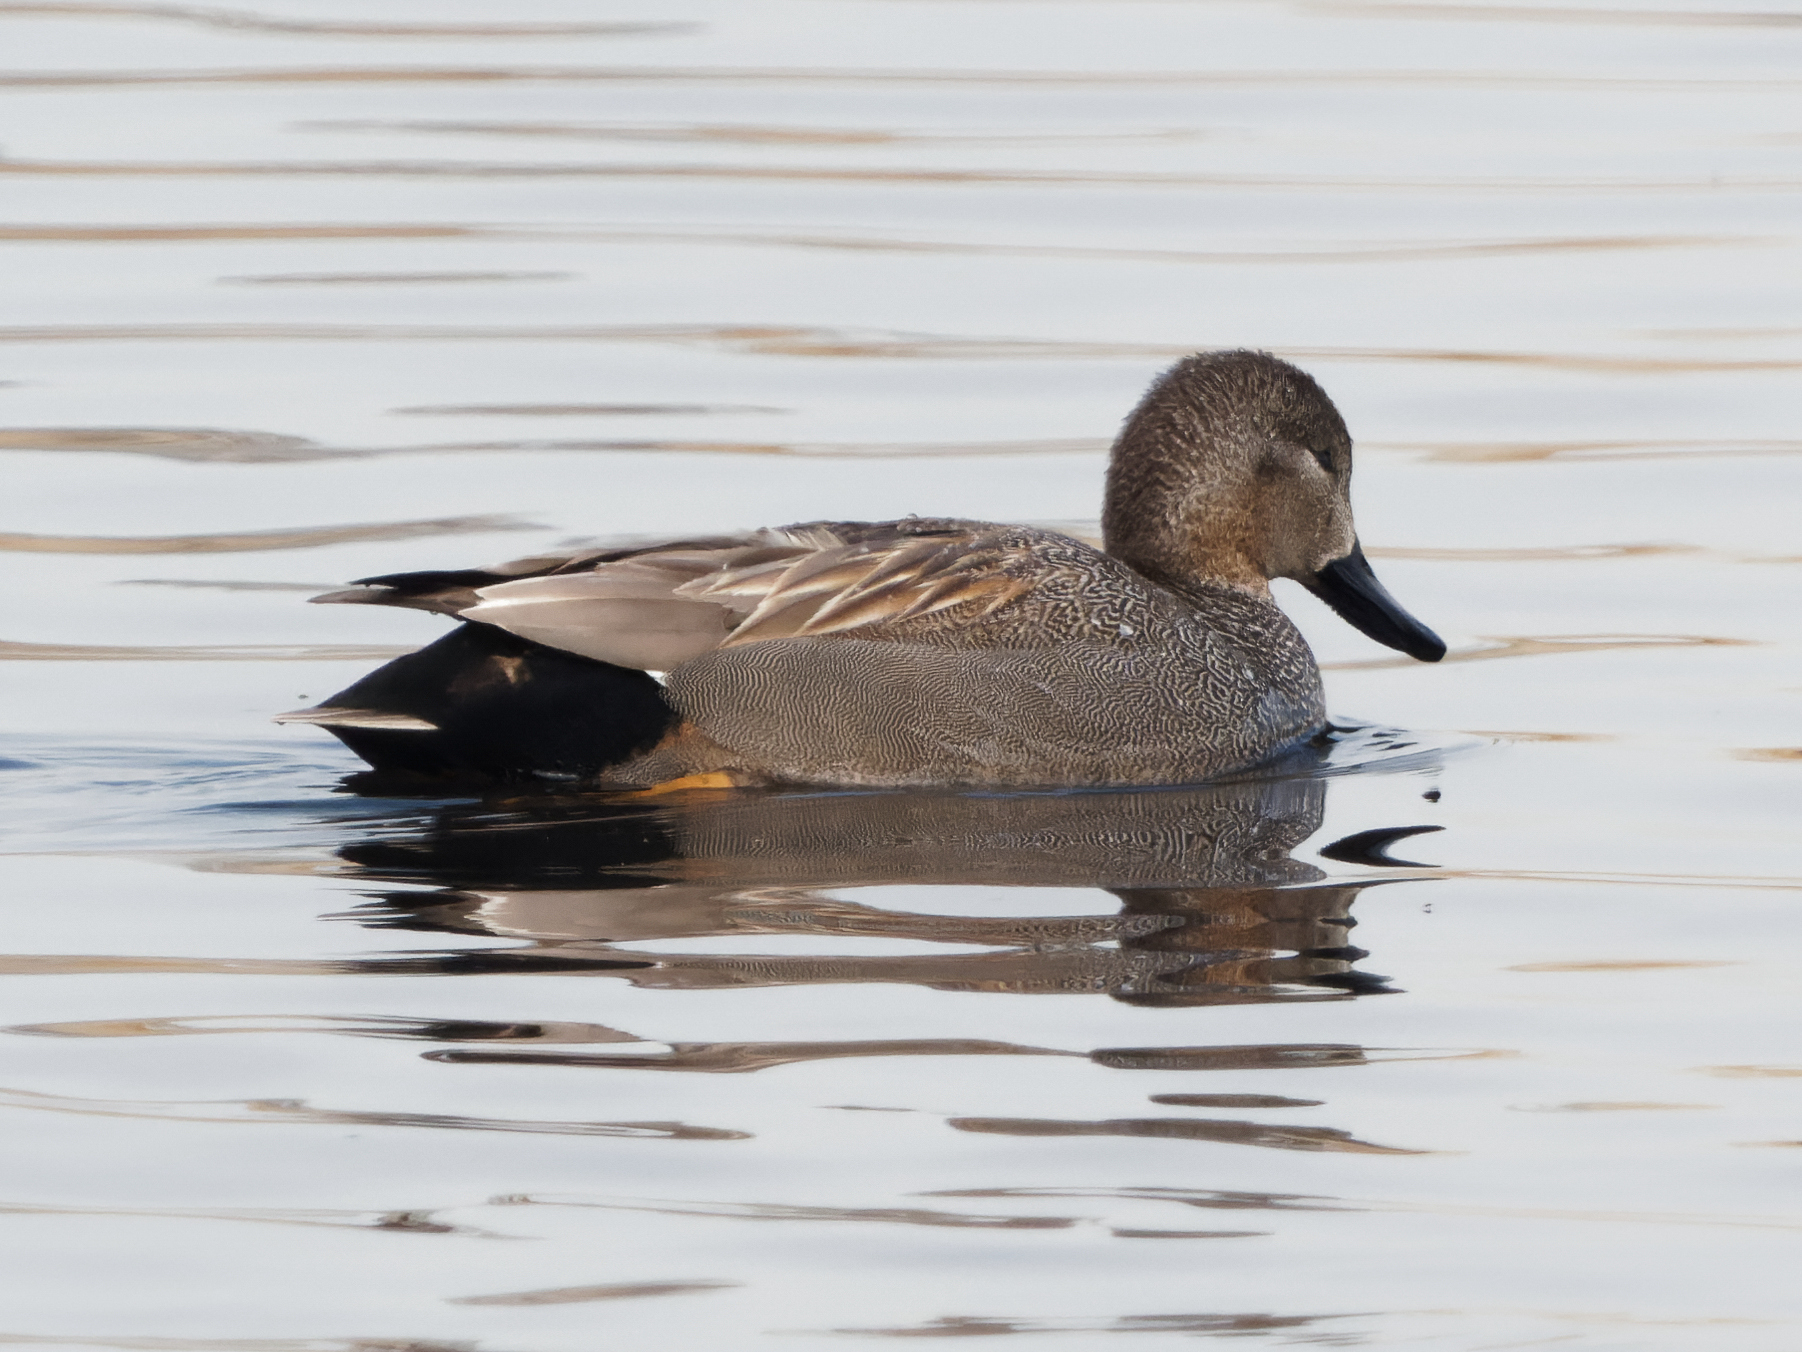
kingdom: Animalia
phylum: Chordata
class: Aves
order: Anseriformes
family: Anatidae
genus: Mareca
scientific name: Mareca strepera
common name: Gadwall
